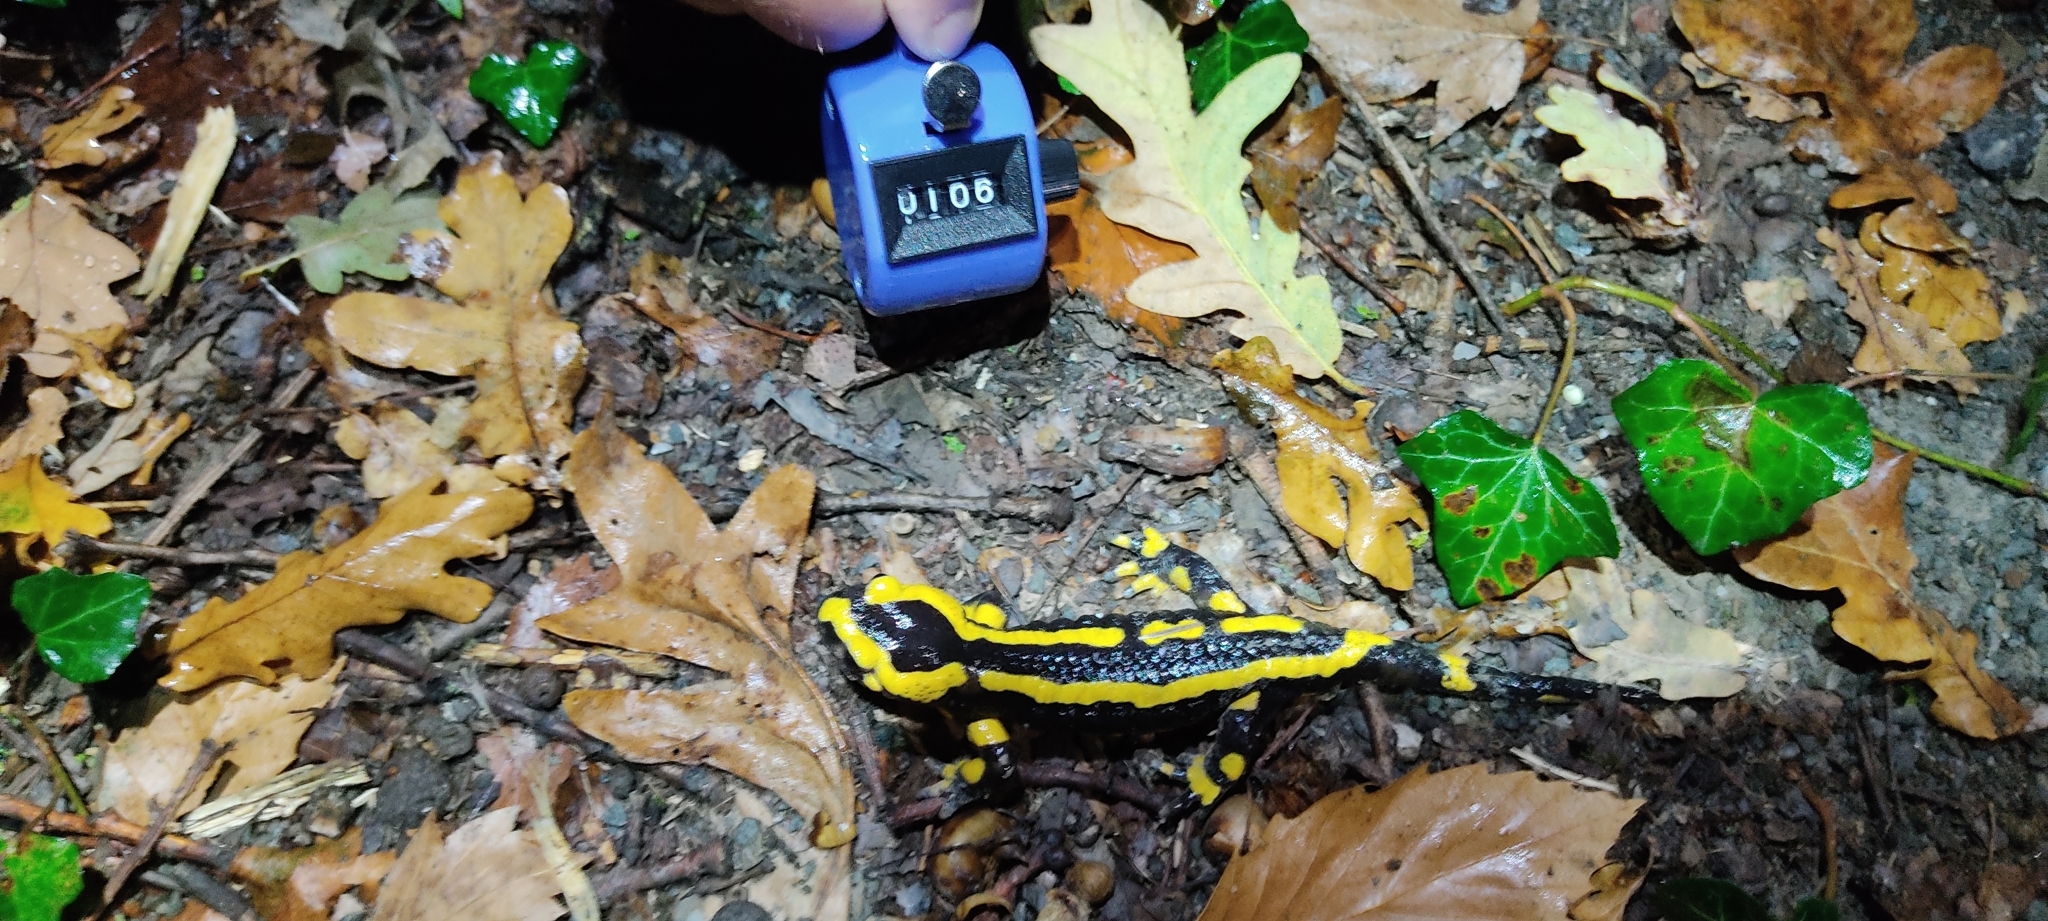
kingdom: Animalia
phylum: Chordata
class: Amphibia
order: Caudata
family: Salamandridae
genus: Salamandra
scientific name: Salamandra salamandra
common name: Fire salamander
